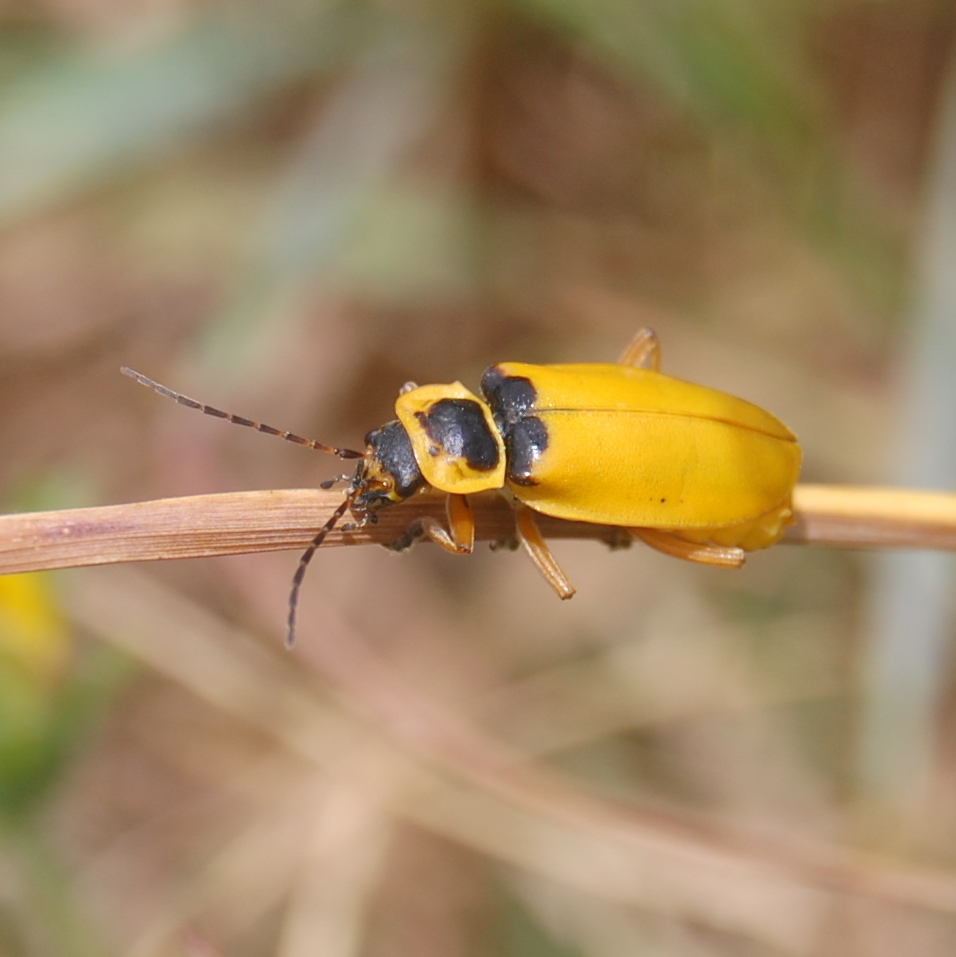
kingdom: Animalia
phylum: Arthropoda
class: Insecta
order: Coleoptera
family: Cantharidae
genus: Chauliognathus
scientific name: Chauliognathus
